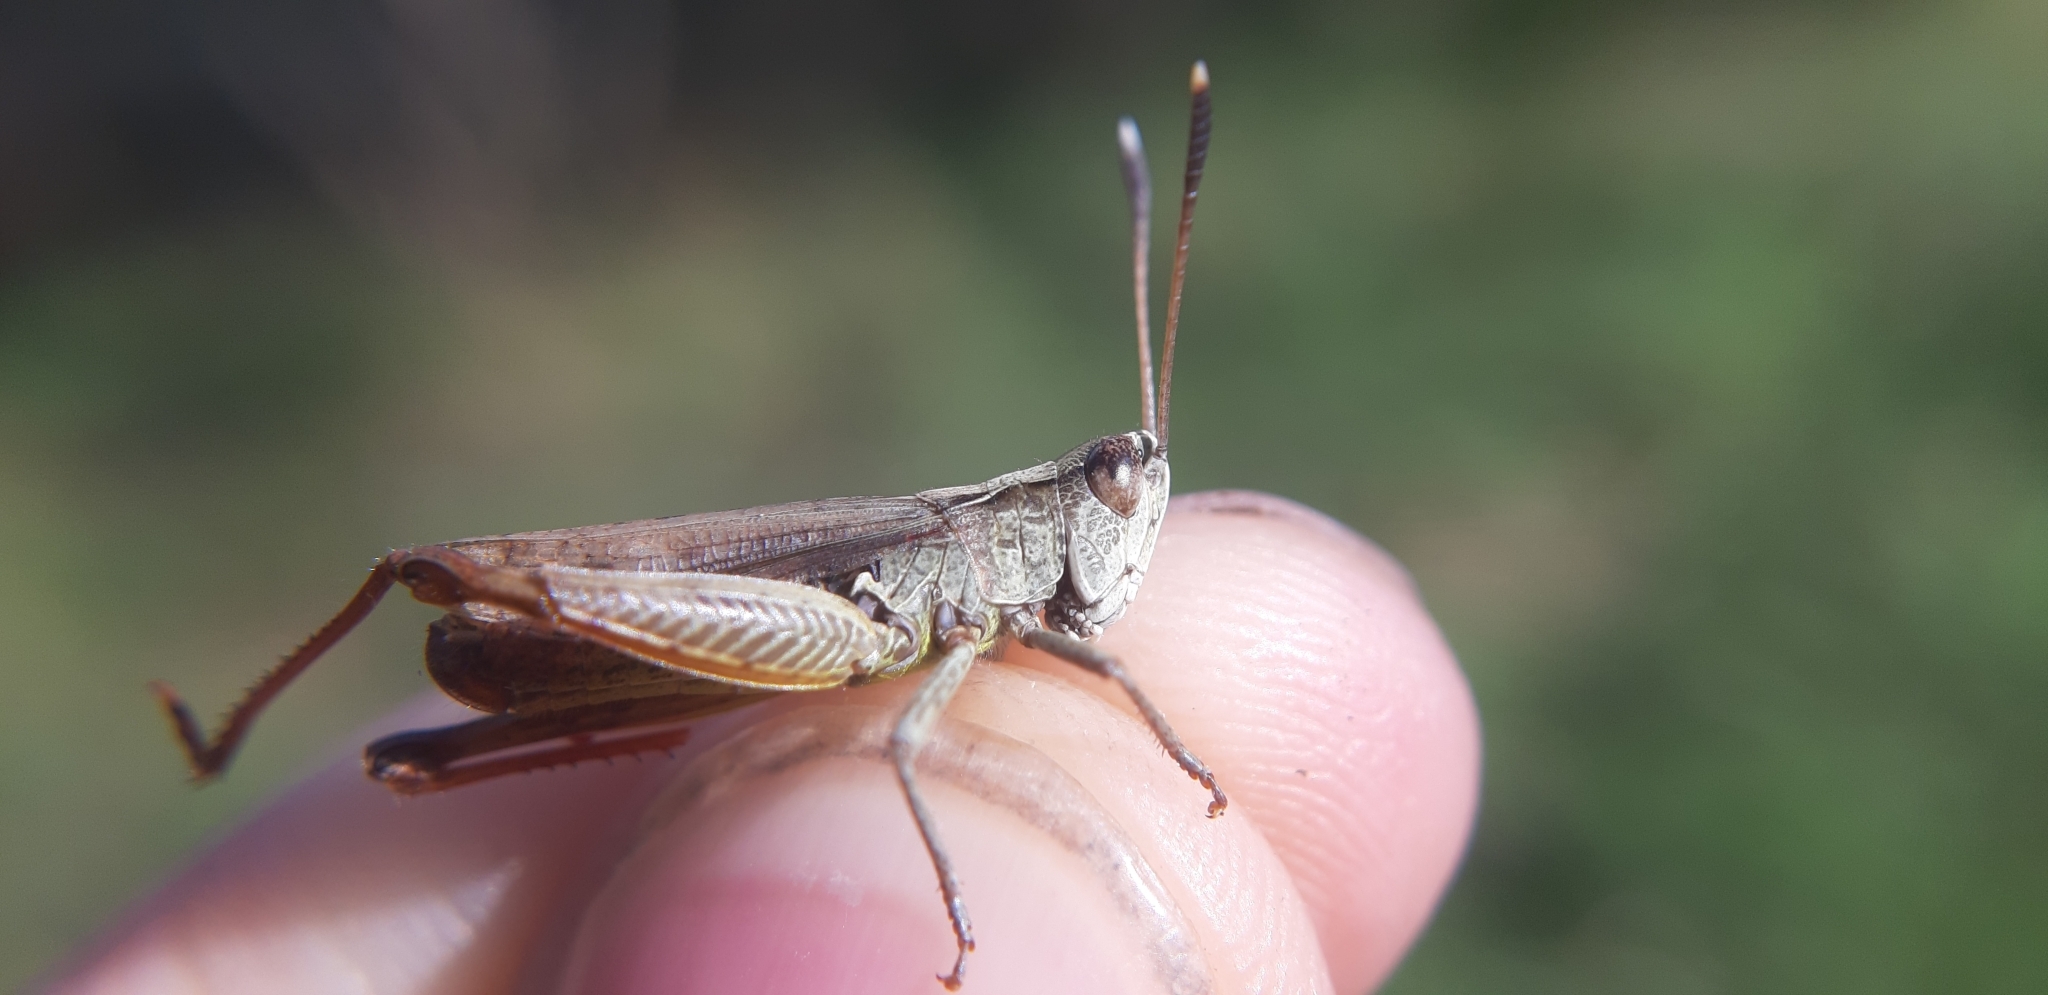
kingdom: Animalia
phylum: Arthropoda
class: Insecta
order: Orthoptera
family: Acrididae
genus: Gomphocerippus
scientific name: Gomphocerippus rufus
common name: Rufous grasshopper
